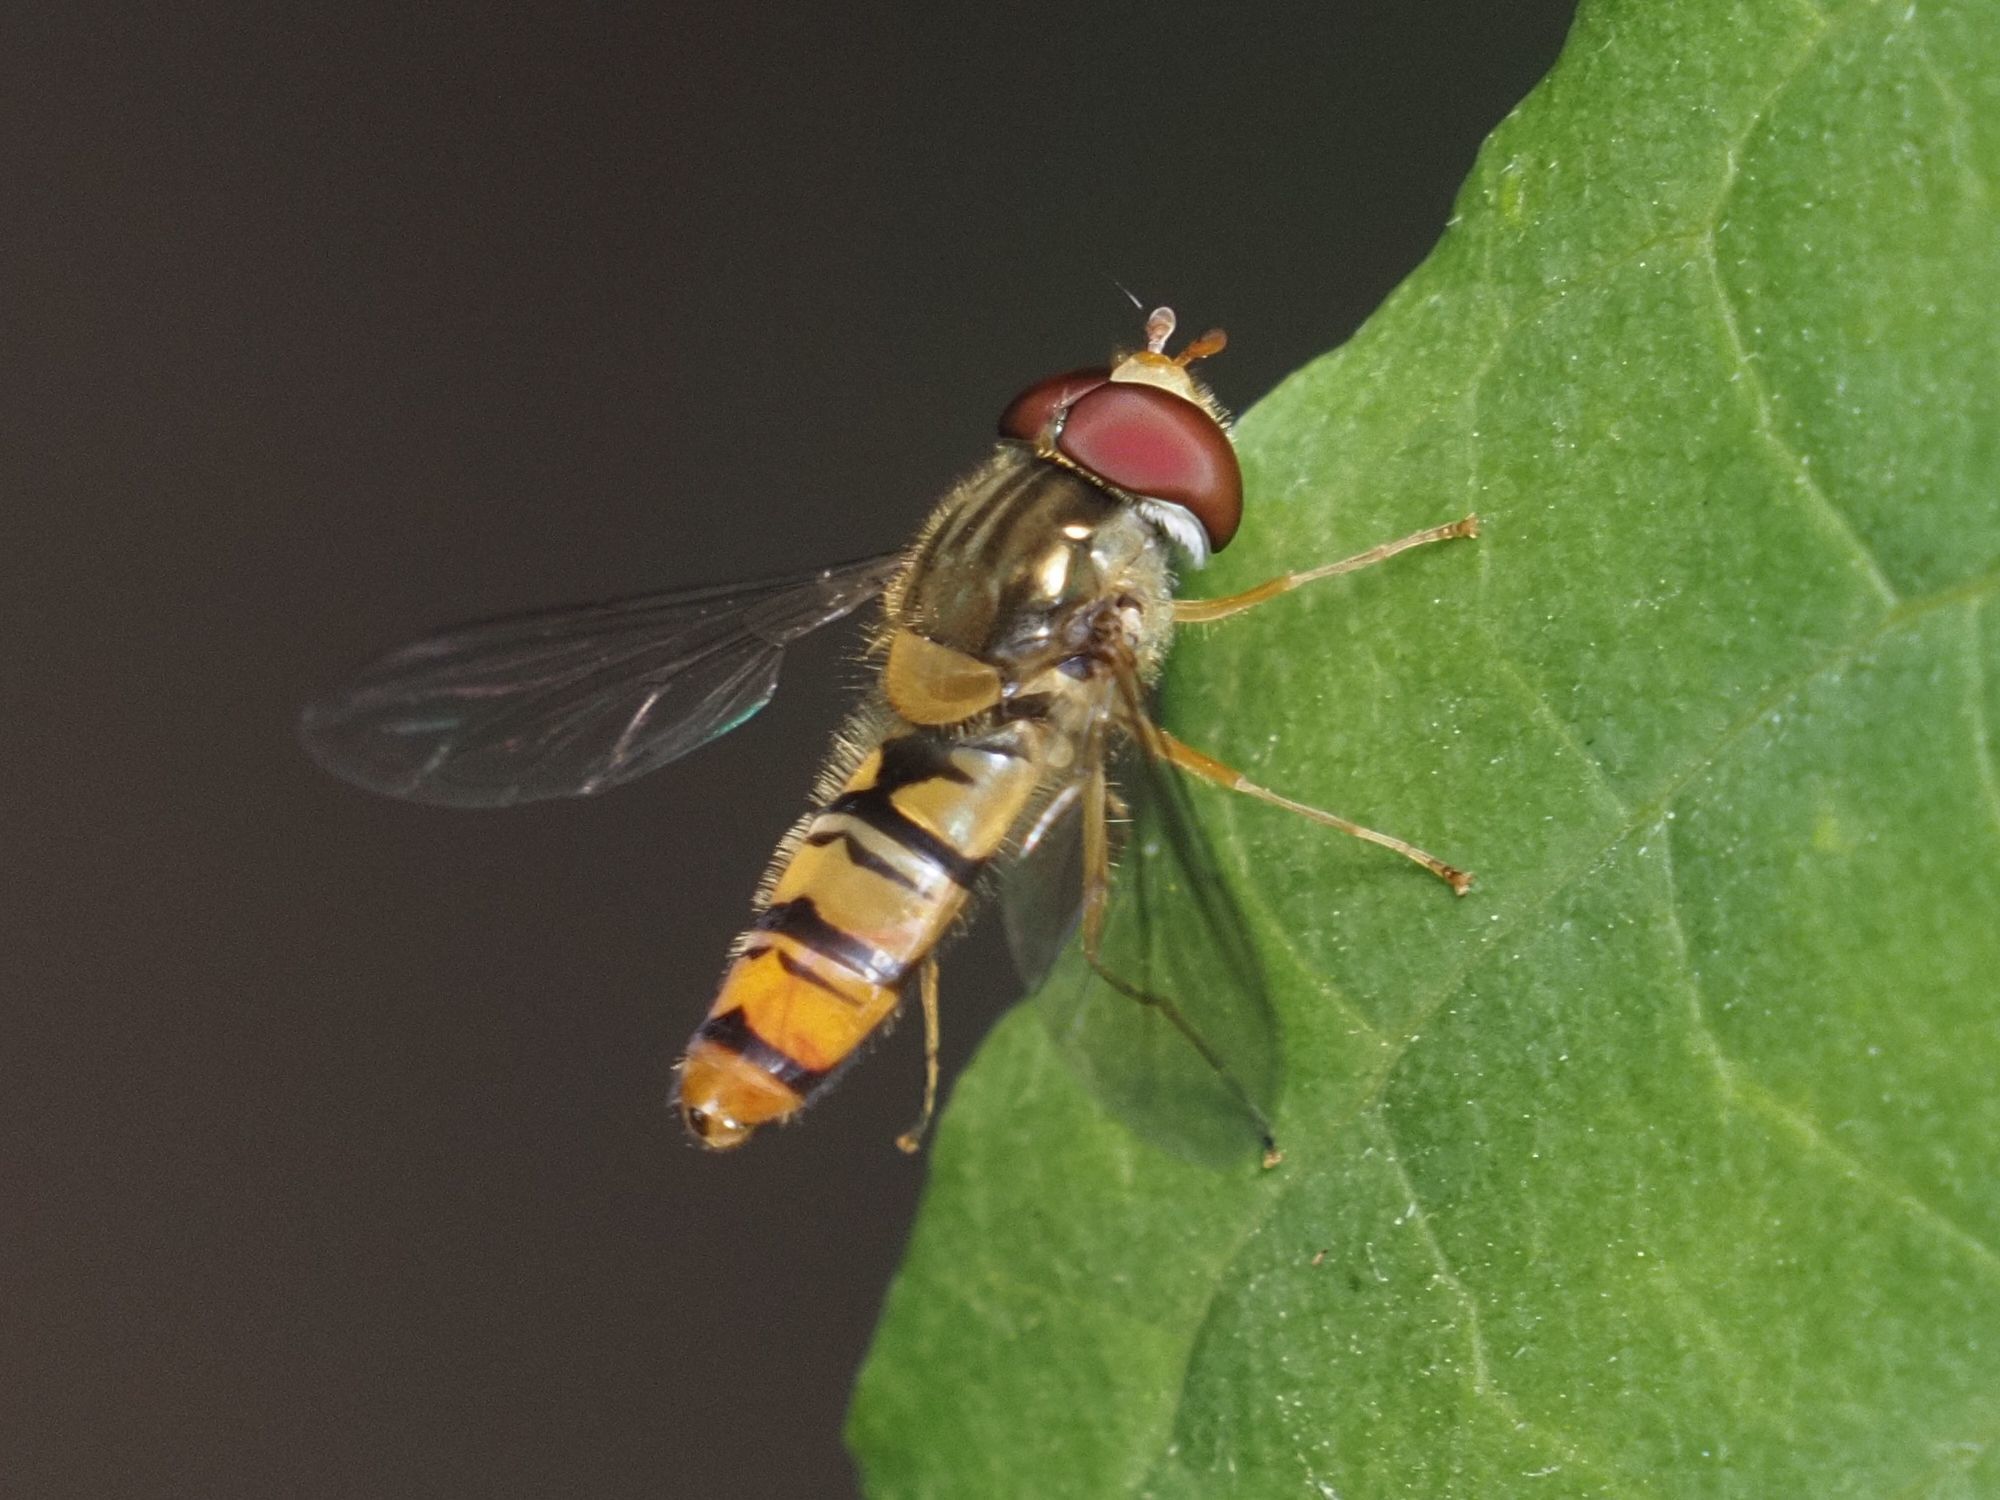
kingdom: Animalia
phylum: Arthropoda
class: Insecta
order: Diptera
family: Syrphidae
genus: Episyrphus
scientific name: Episyrphus balteatus
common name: Marmalade hoverfly
